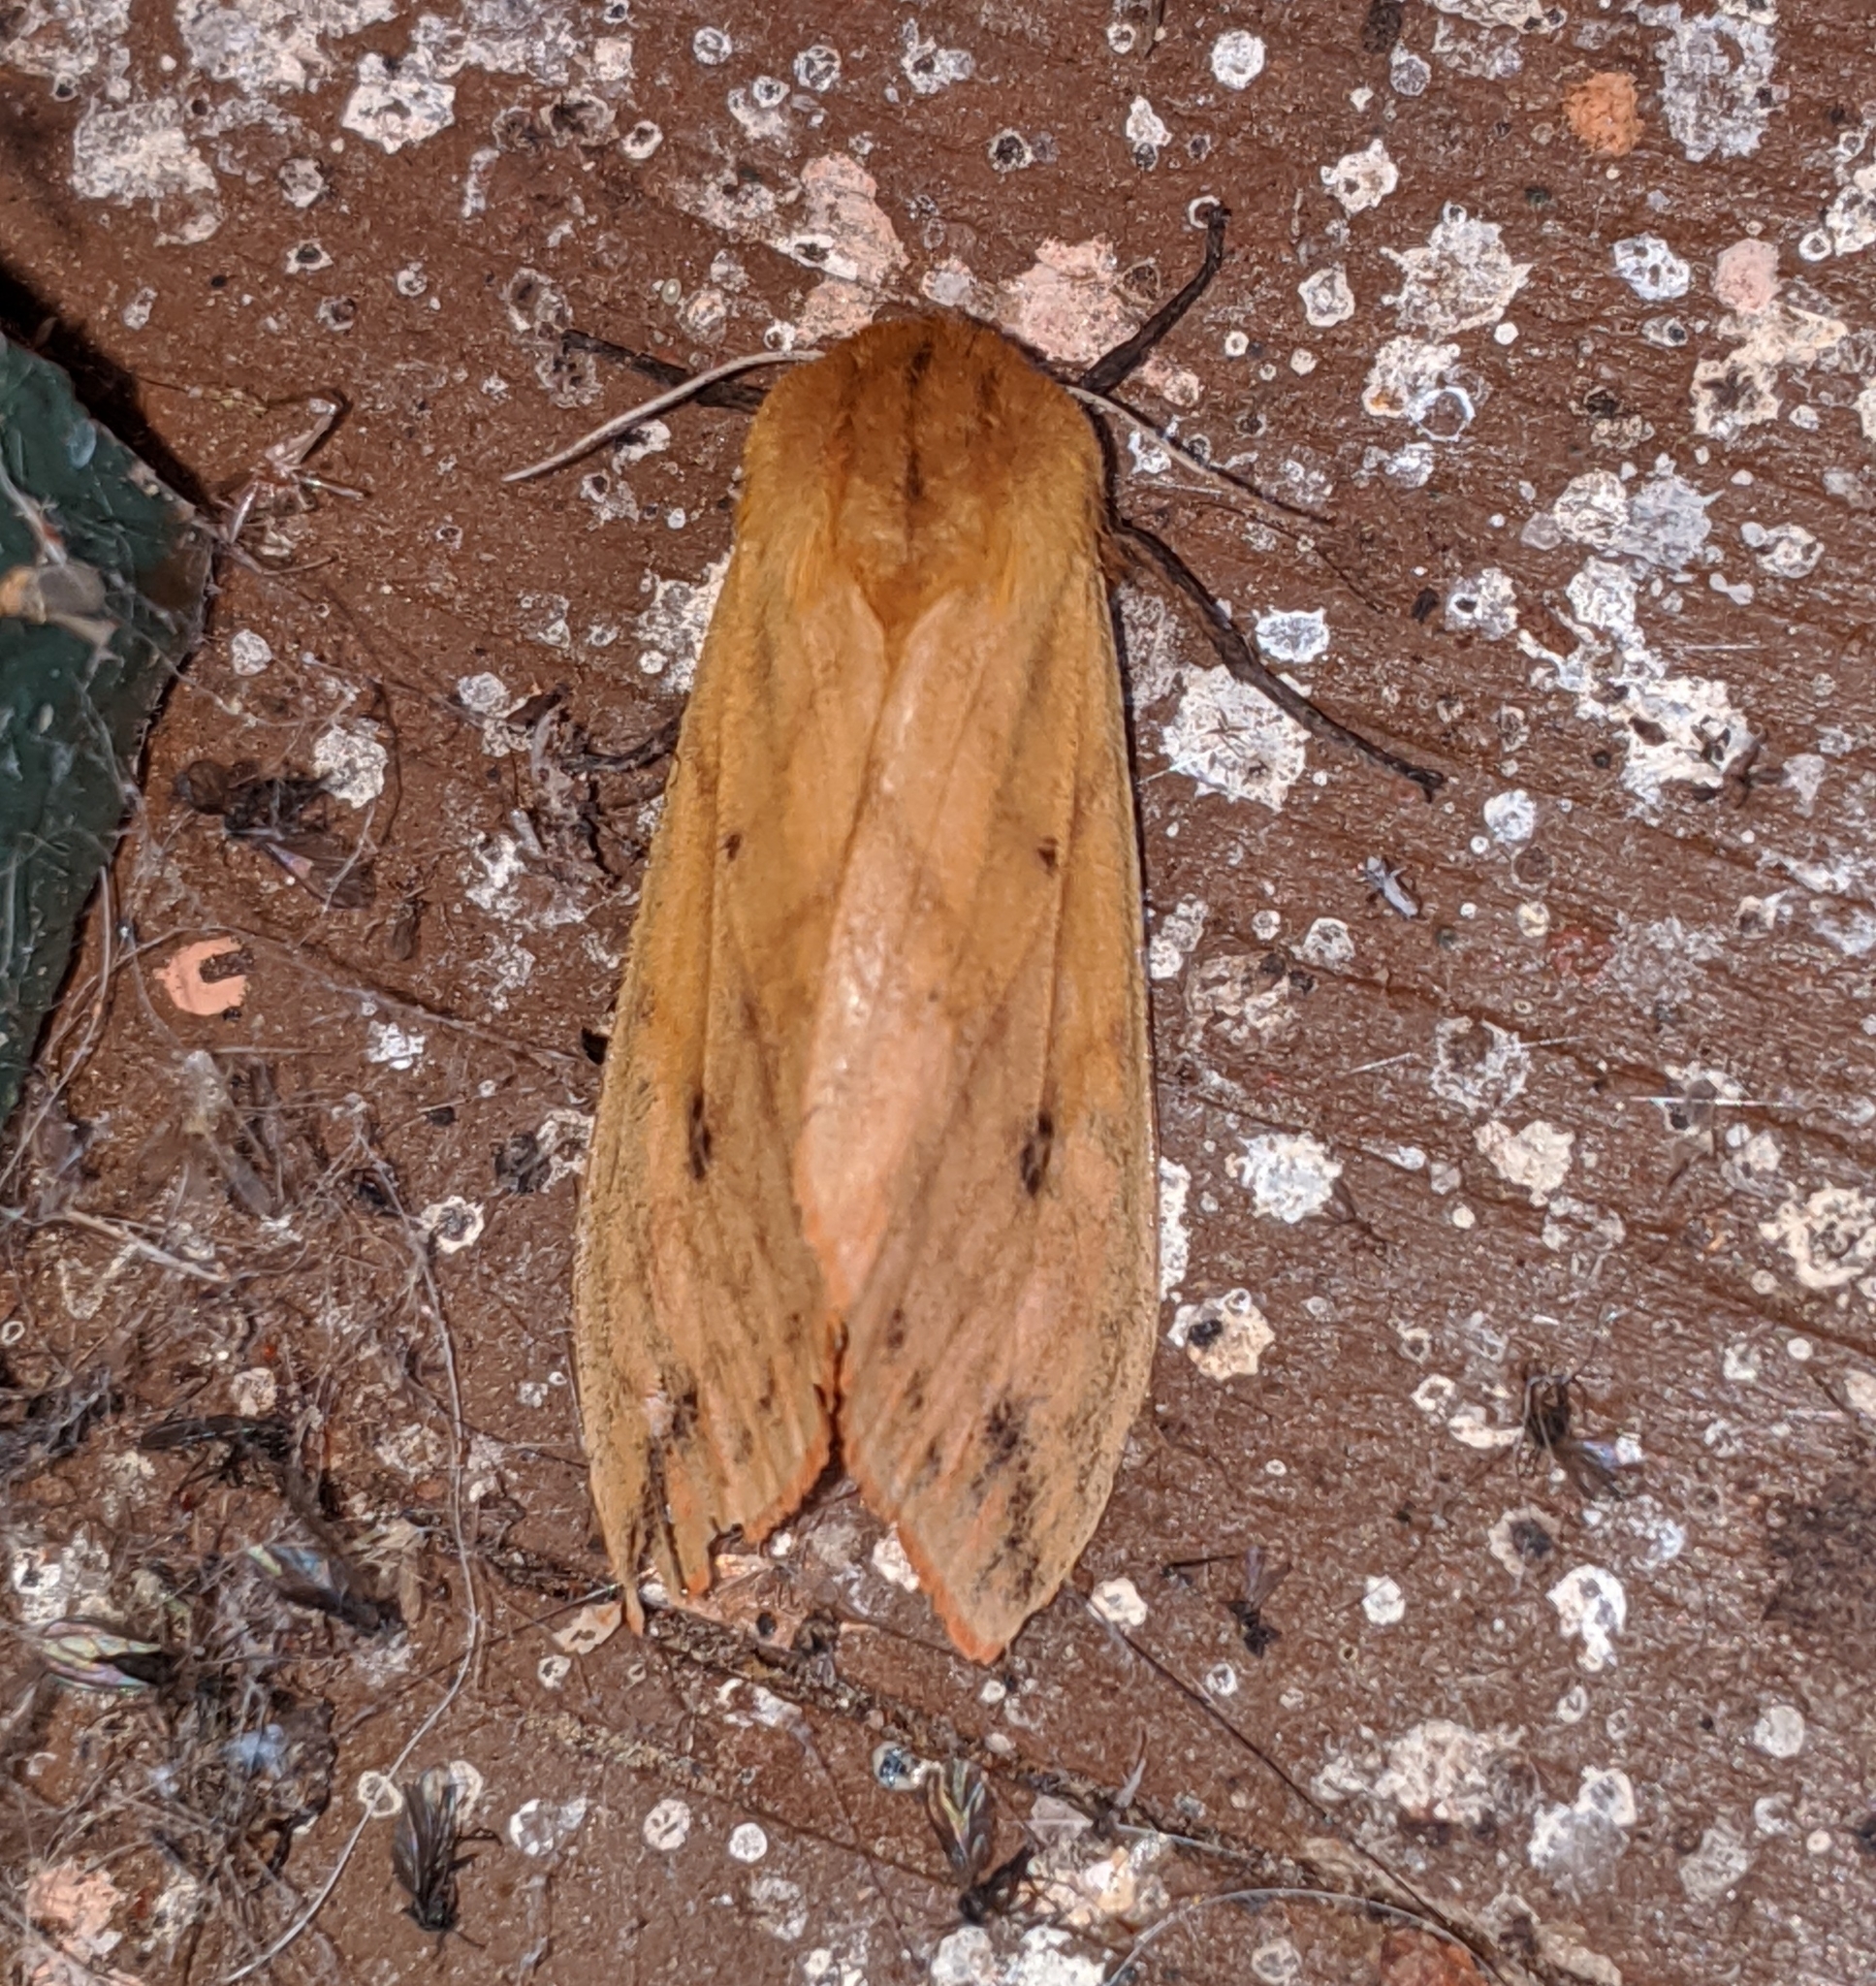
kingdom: Animalia
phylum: Arthropoda
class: Insecta
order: Lepidoptera
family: Erebidae
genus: Pyrrharctia
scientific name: Pyrrharctia isabella
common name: Isabella tiger moth
